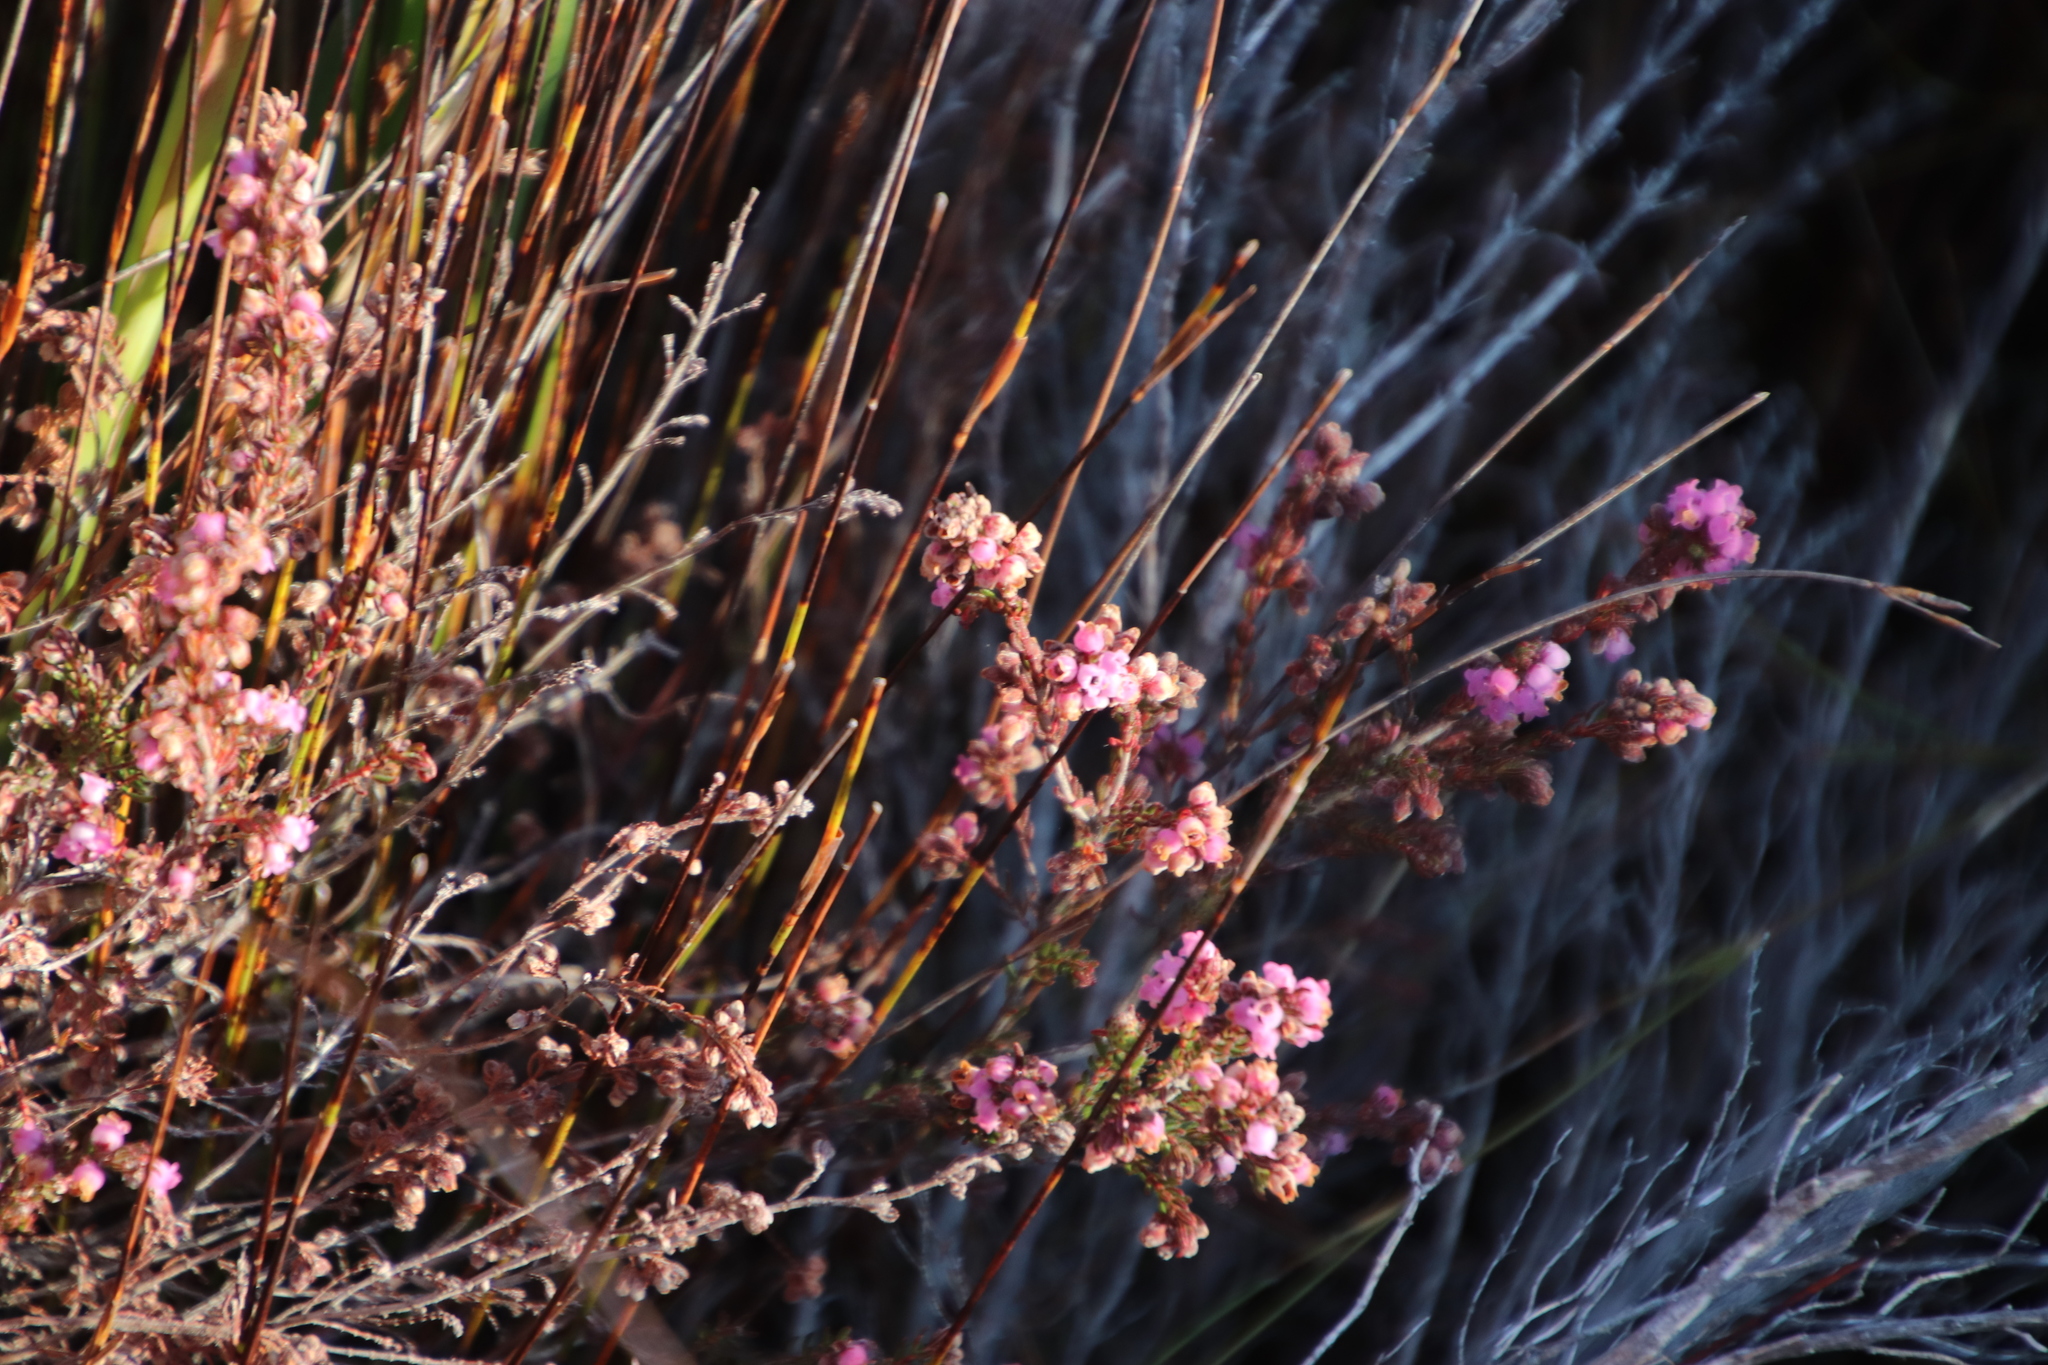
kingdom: Plantae
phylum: Tracheophyta
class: Magnoliopsida
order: Ericales
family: Ericaceae
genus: Erica
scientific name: Erica mollis
